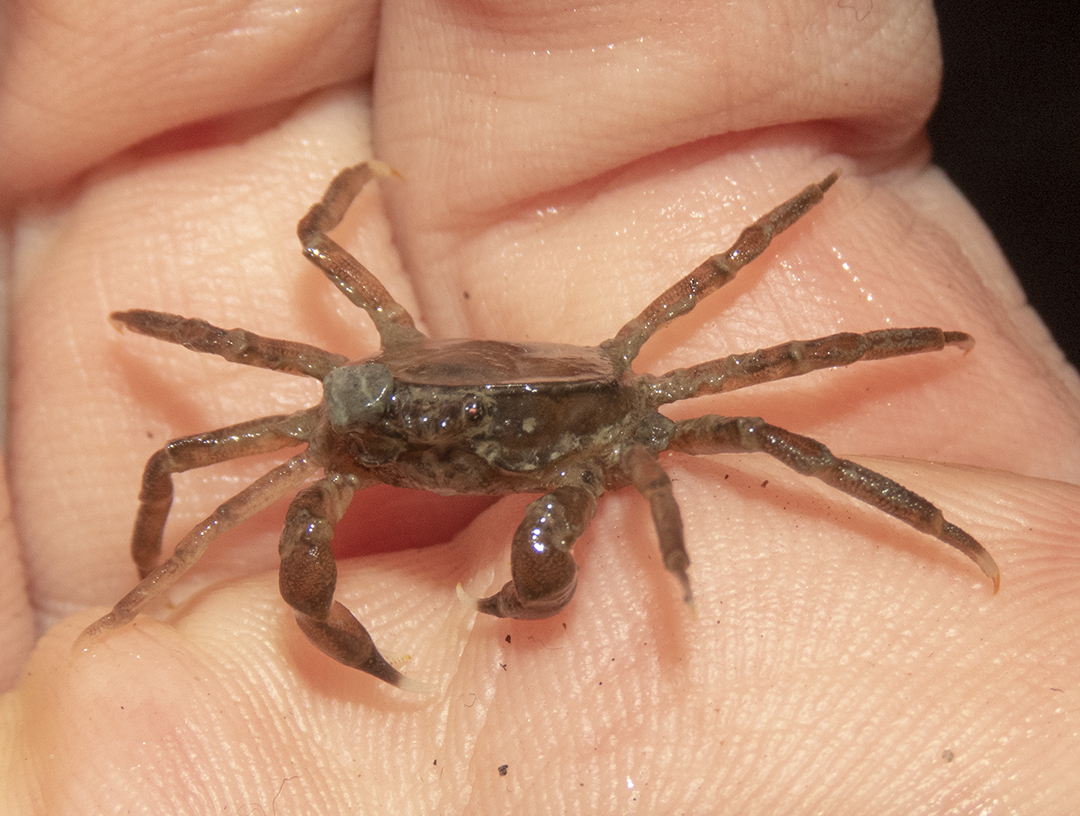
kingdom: Animalia
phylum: Arthropoda
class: Malacostraca
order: Decapoda
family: Hymenosomatidae
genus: Halicarcinus
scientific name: Halicarcinus quoyi
